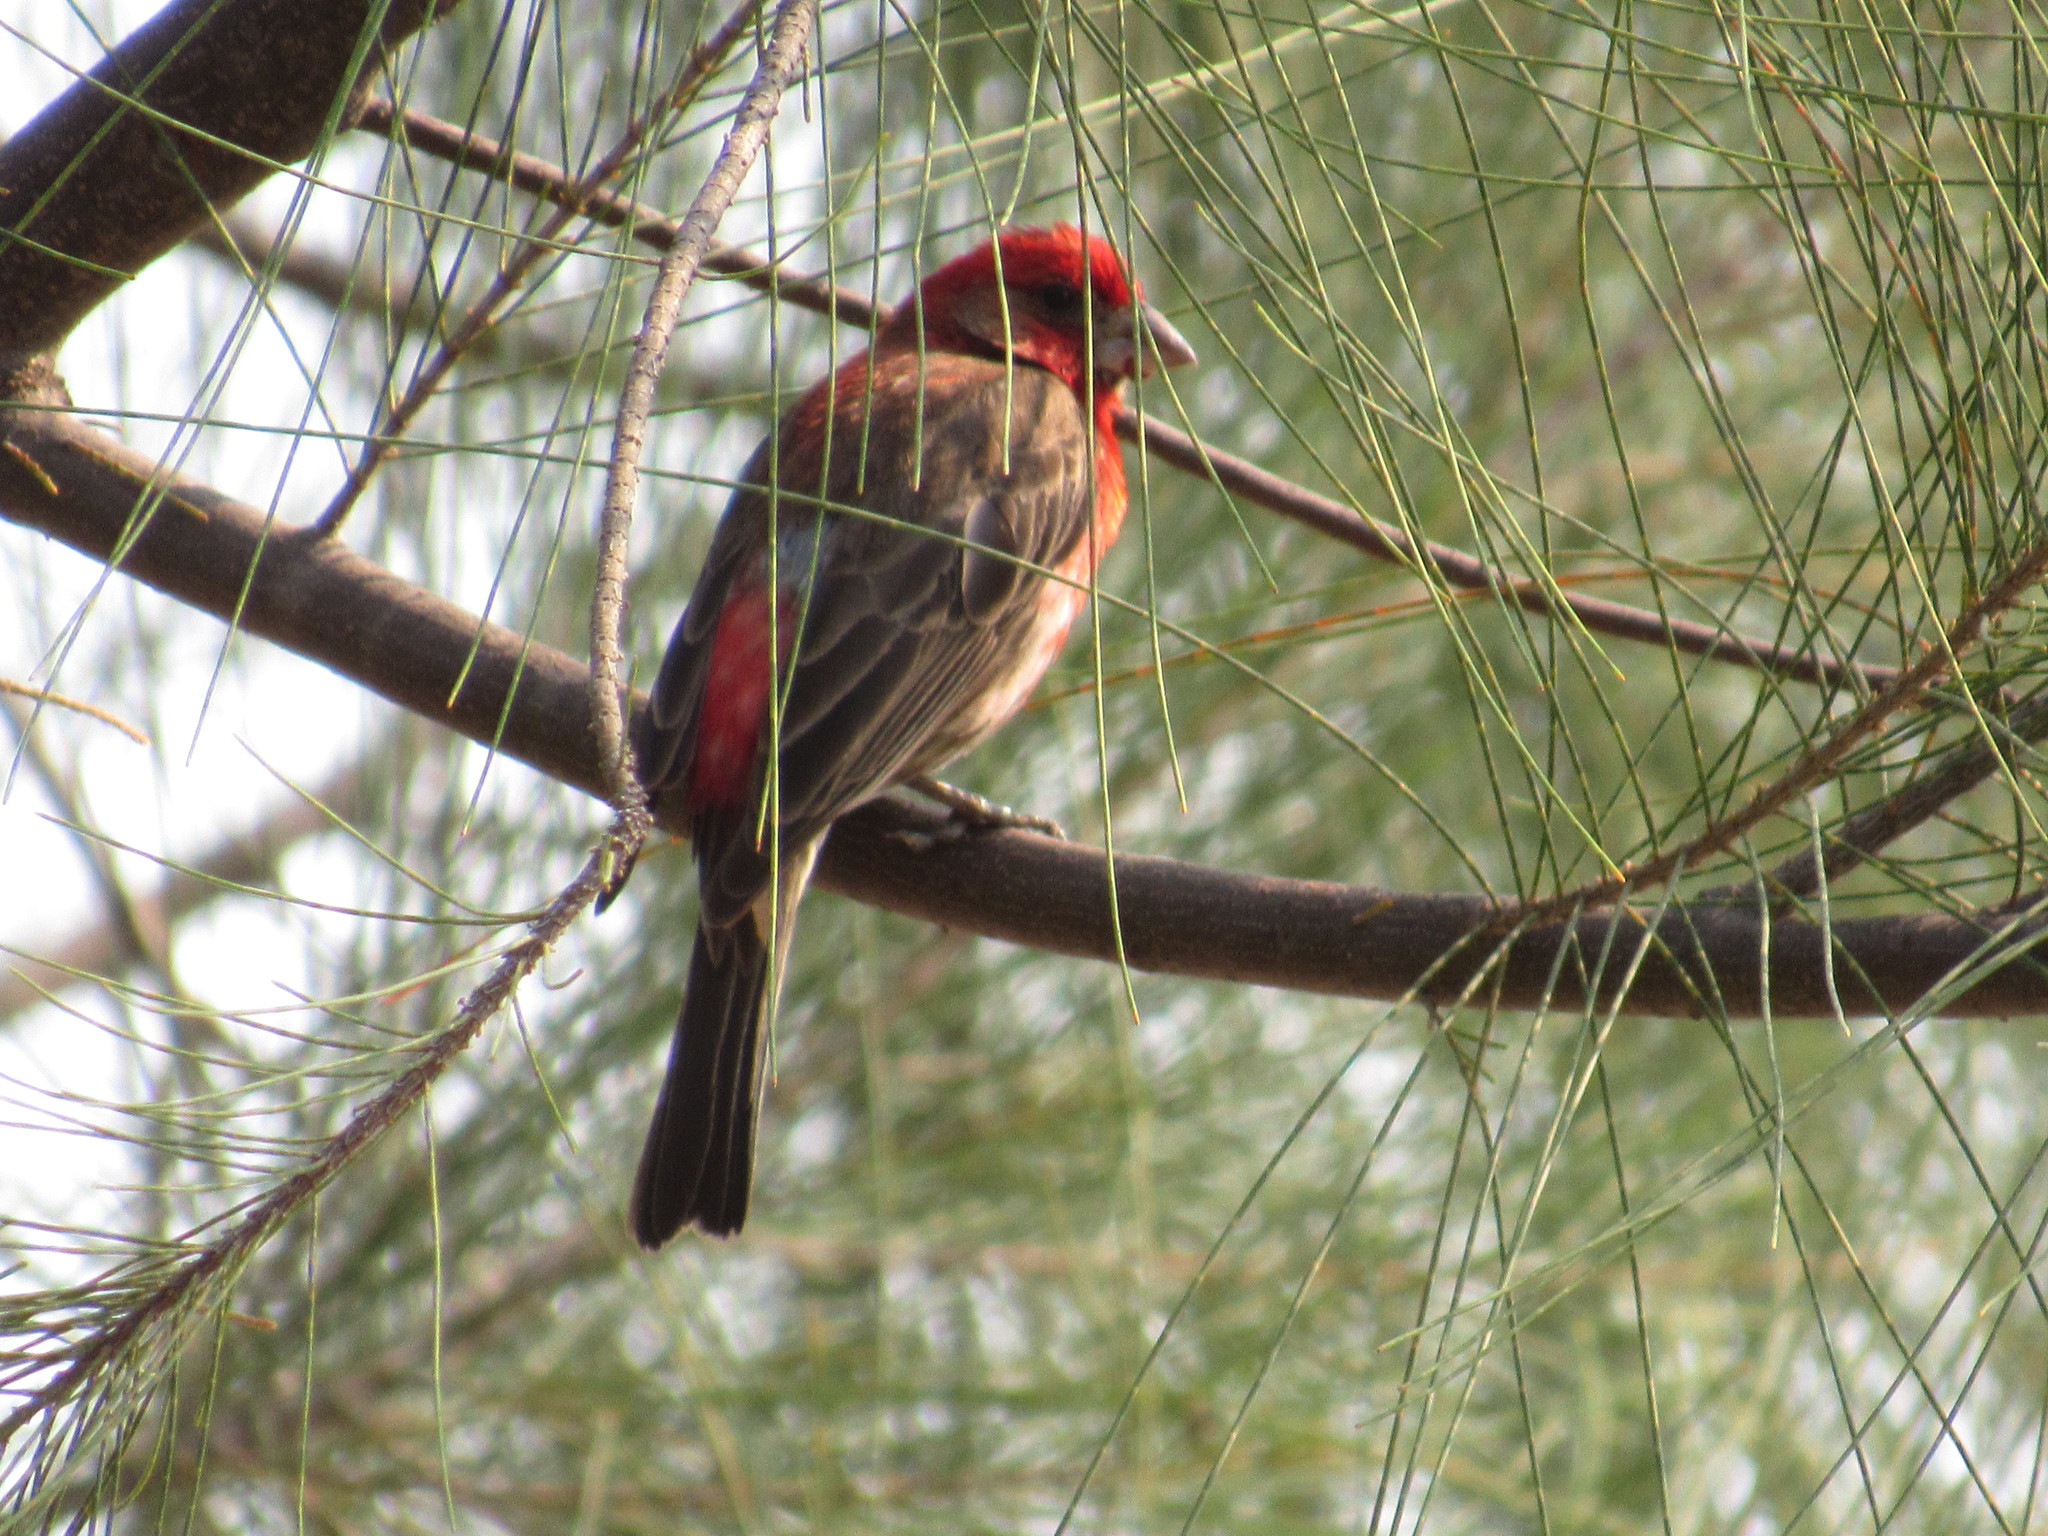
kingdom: Animalia
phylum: Chordata
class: Aves
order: Passeriformes
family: Fringillidae
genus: Haemorhous
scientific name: Haemorhous mexicanus
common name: House finch
